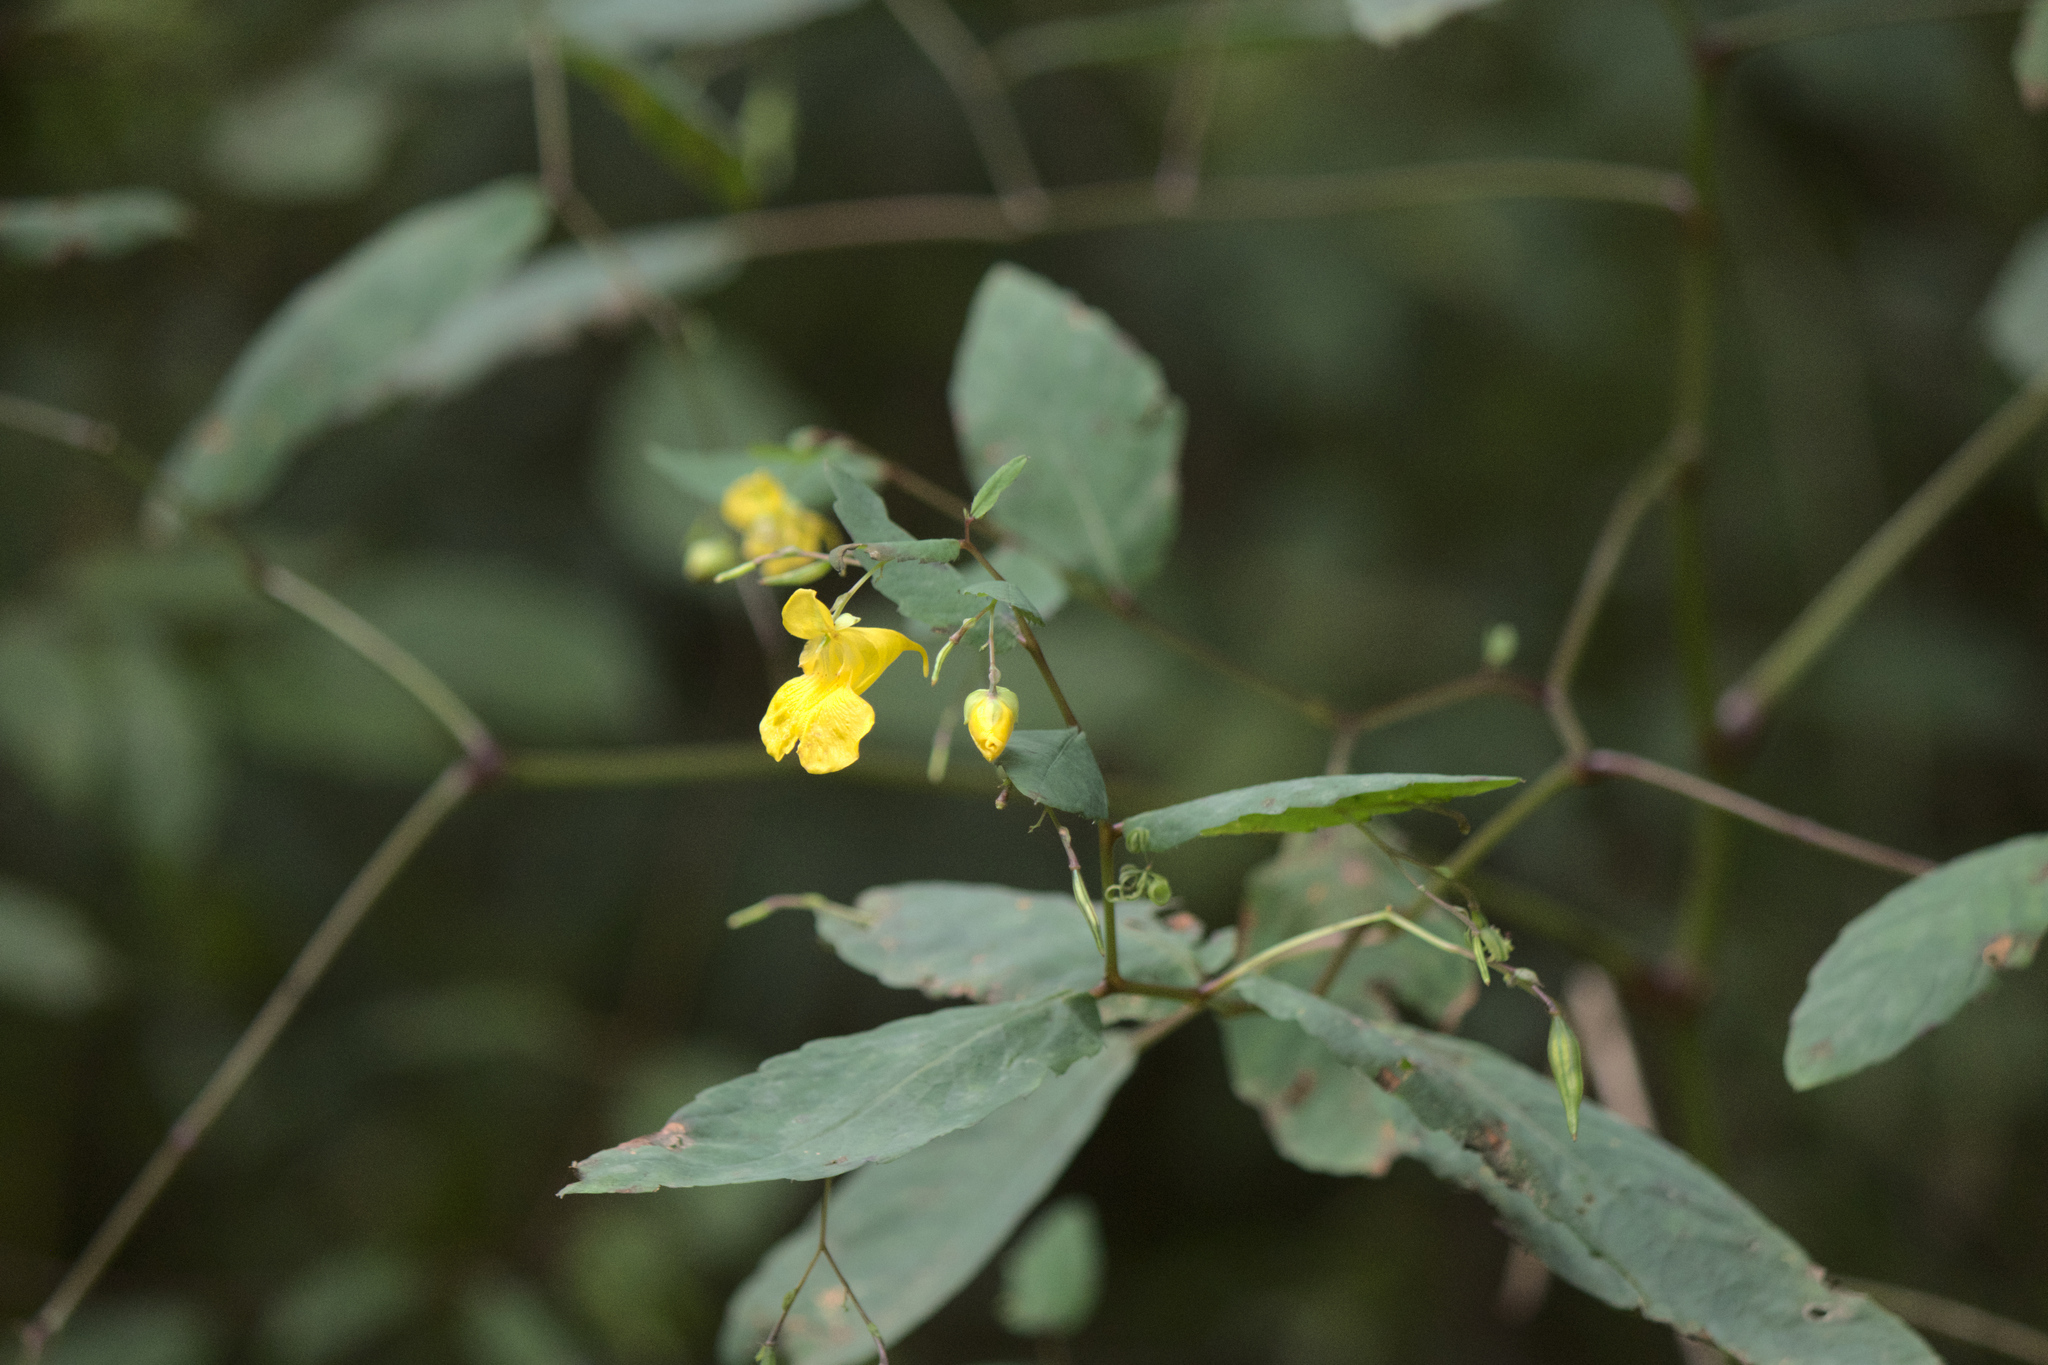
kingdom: Plantae
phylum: Tracheophyta
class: Magnoliopsida
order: Ericales
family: Balsaminaceae
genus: Impatiens
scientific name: Impatiens pallida
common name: Pale snapweed
